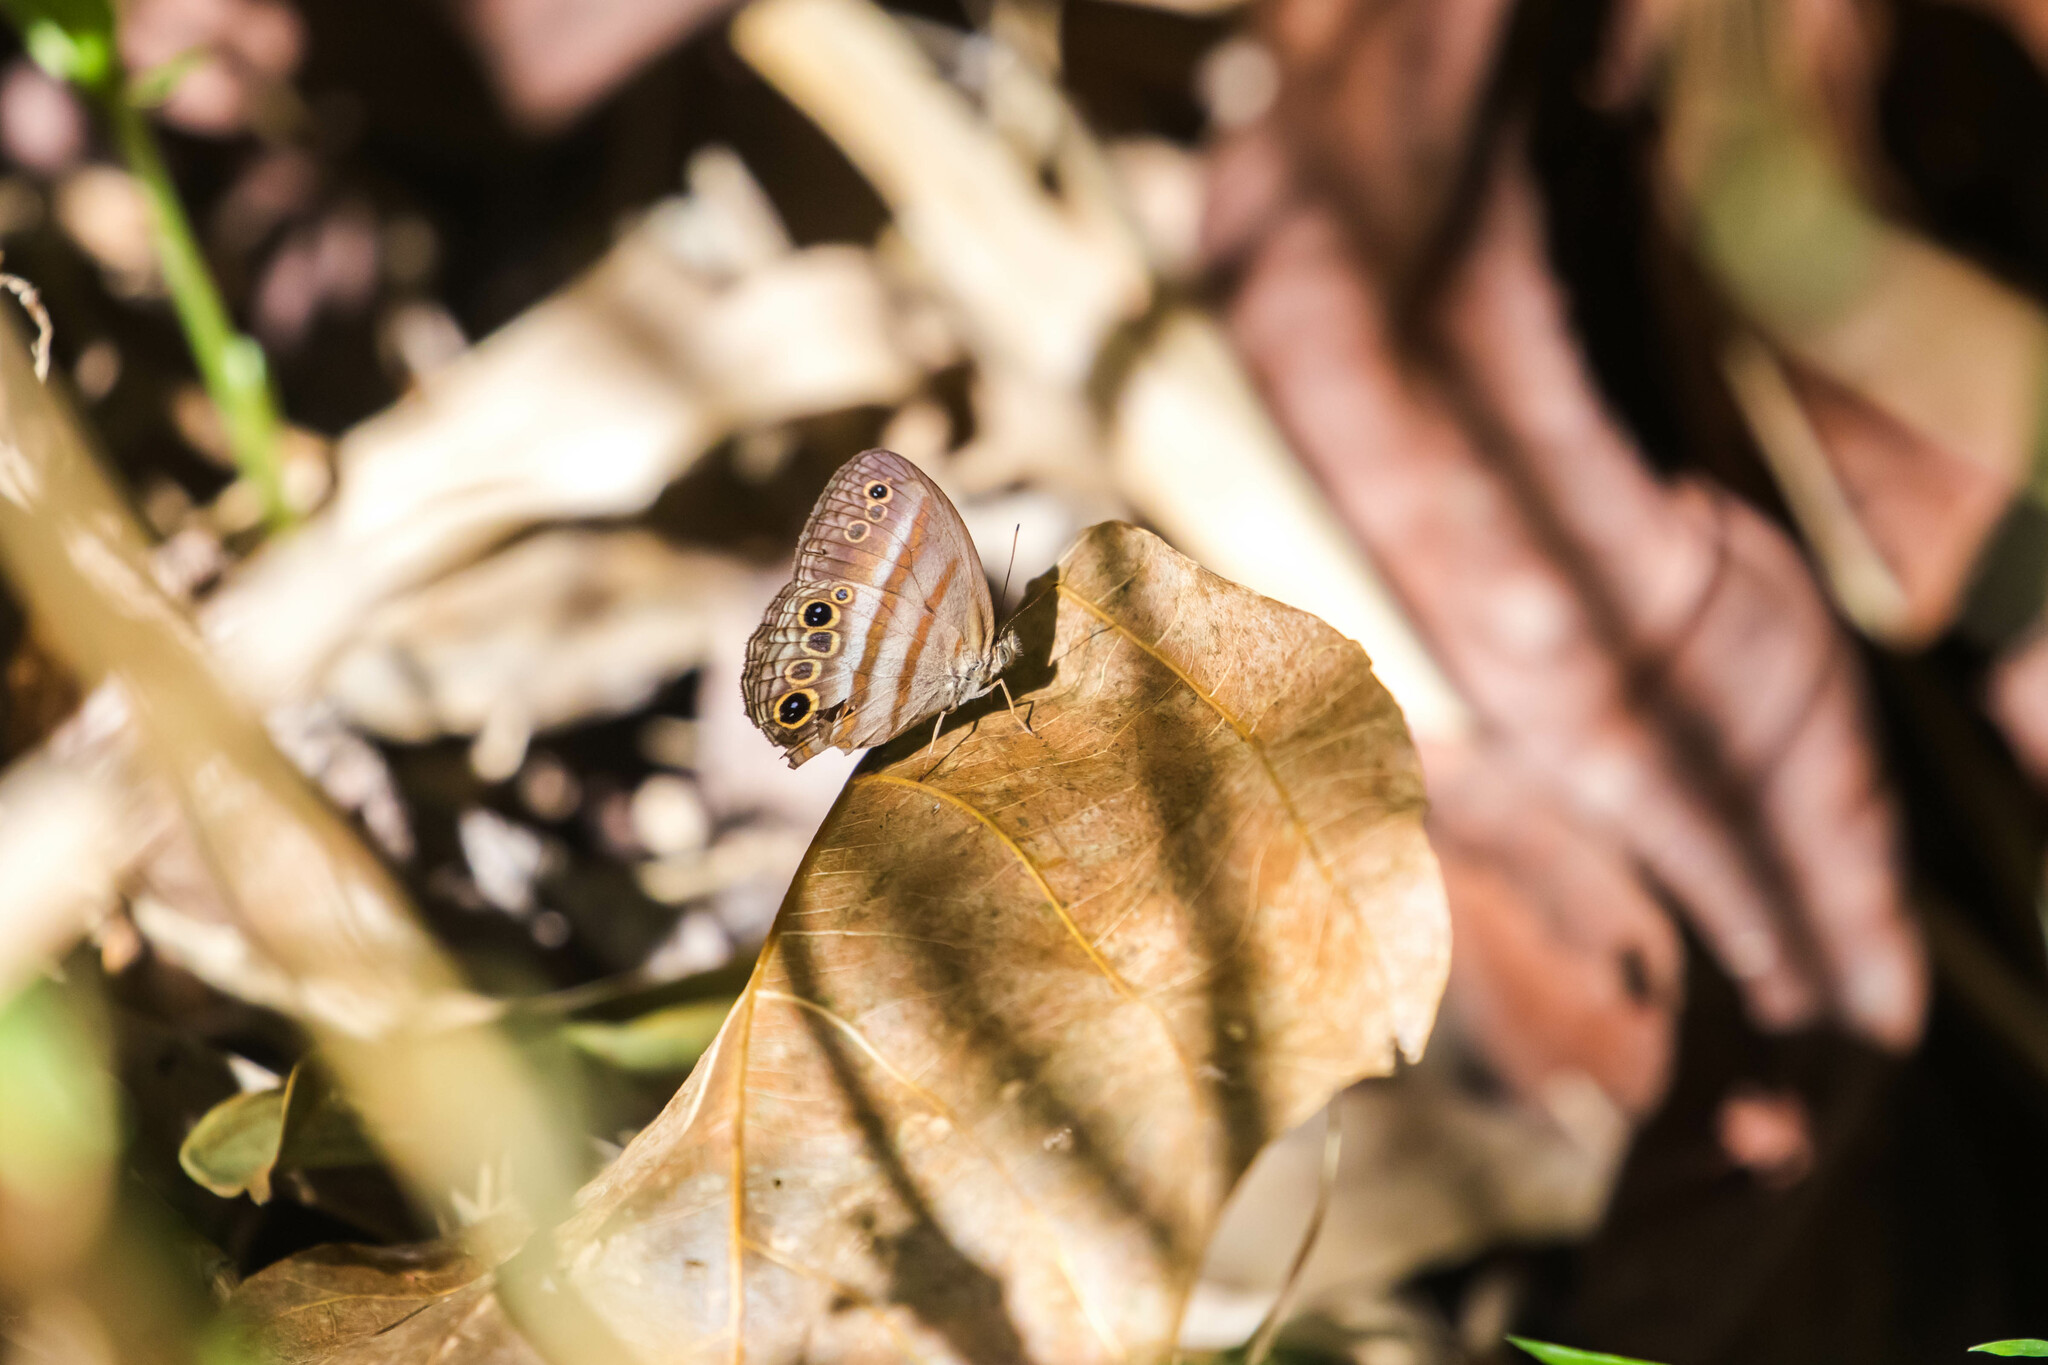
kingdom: Animalia
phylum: Arthropoda
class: Insecta
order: Lepidoptera
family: Nymphalidae
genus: Modica
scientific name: Modica
